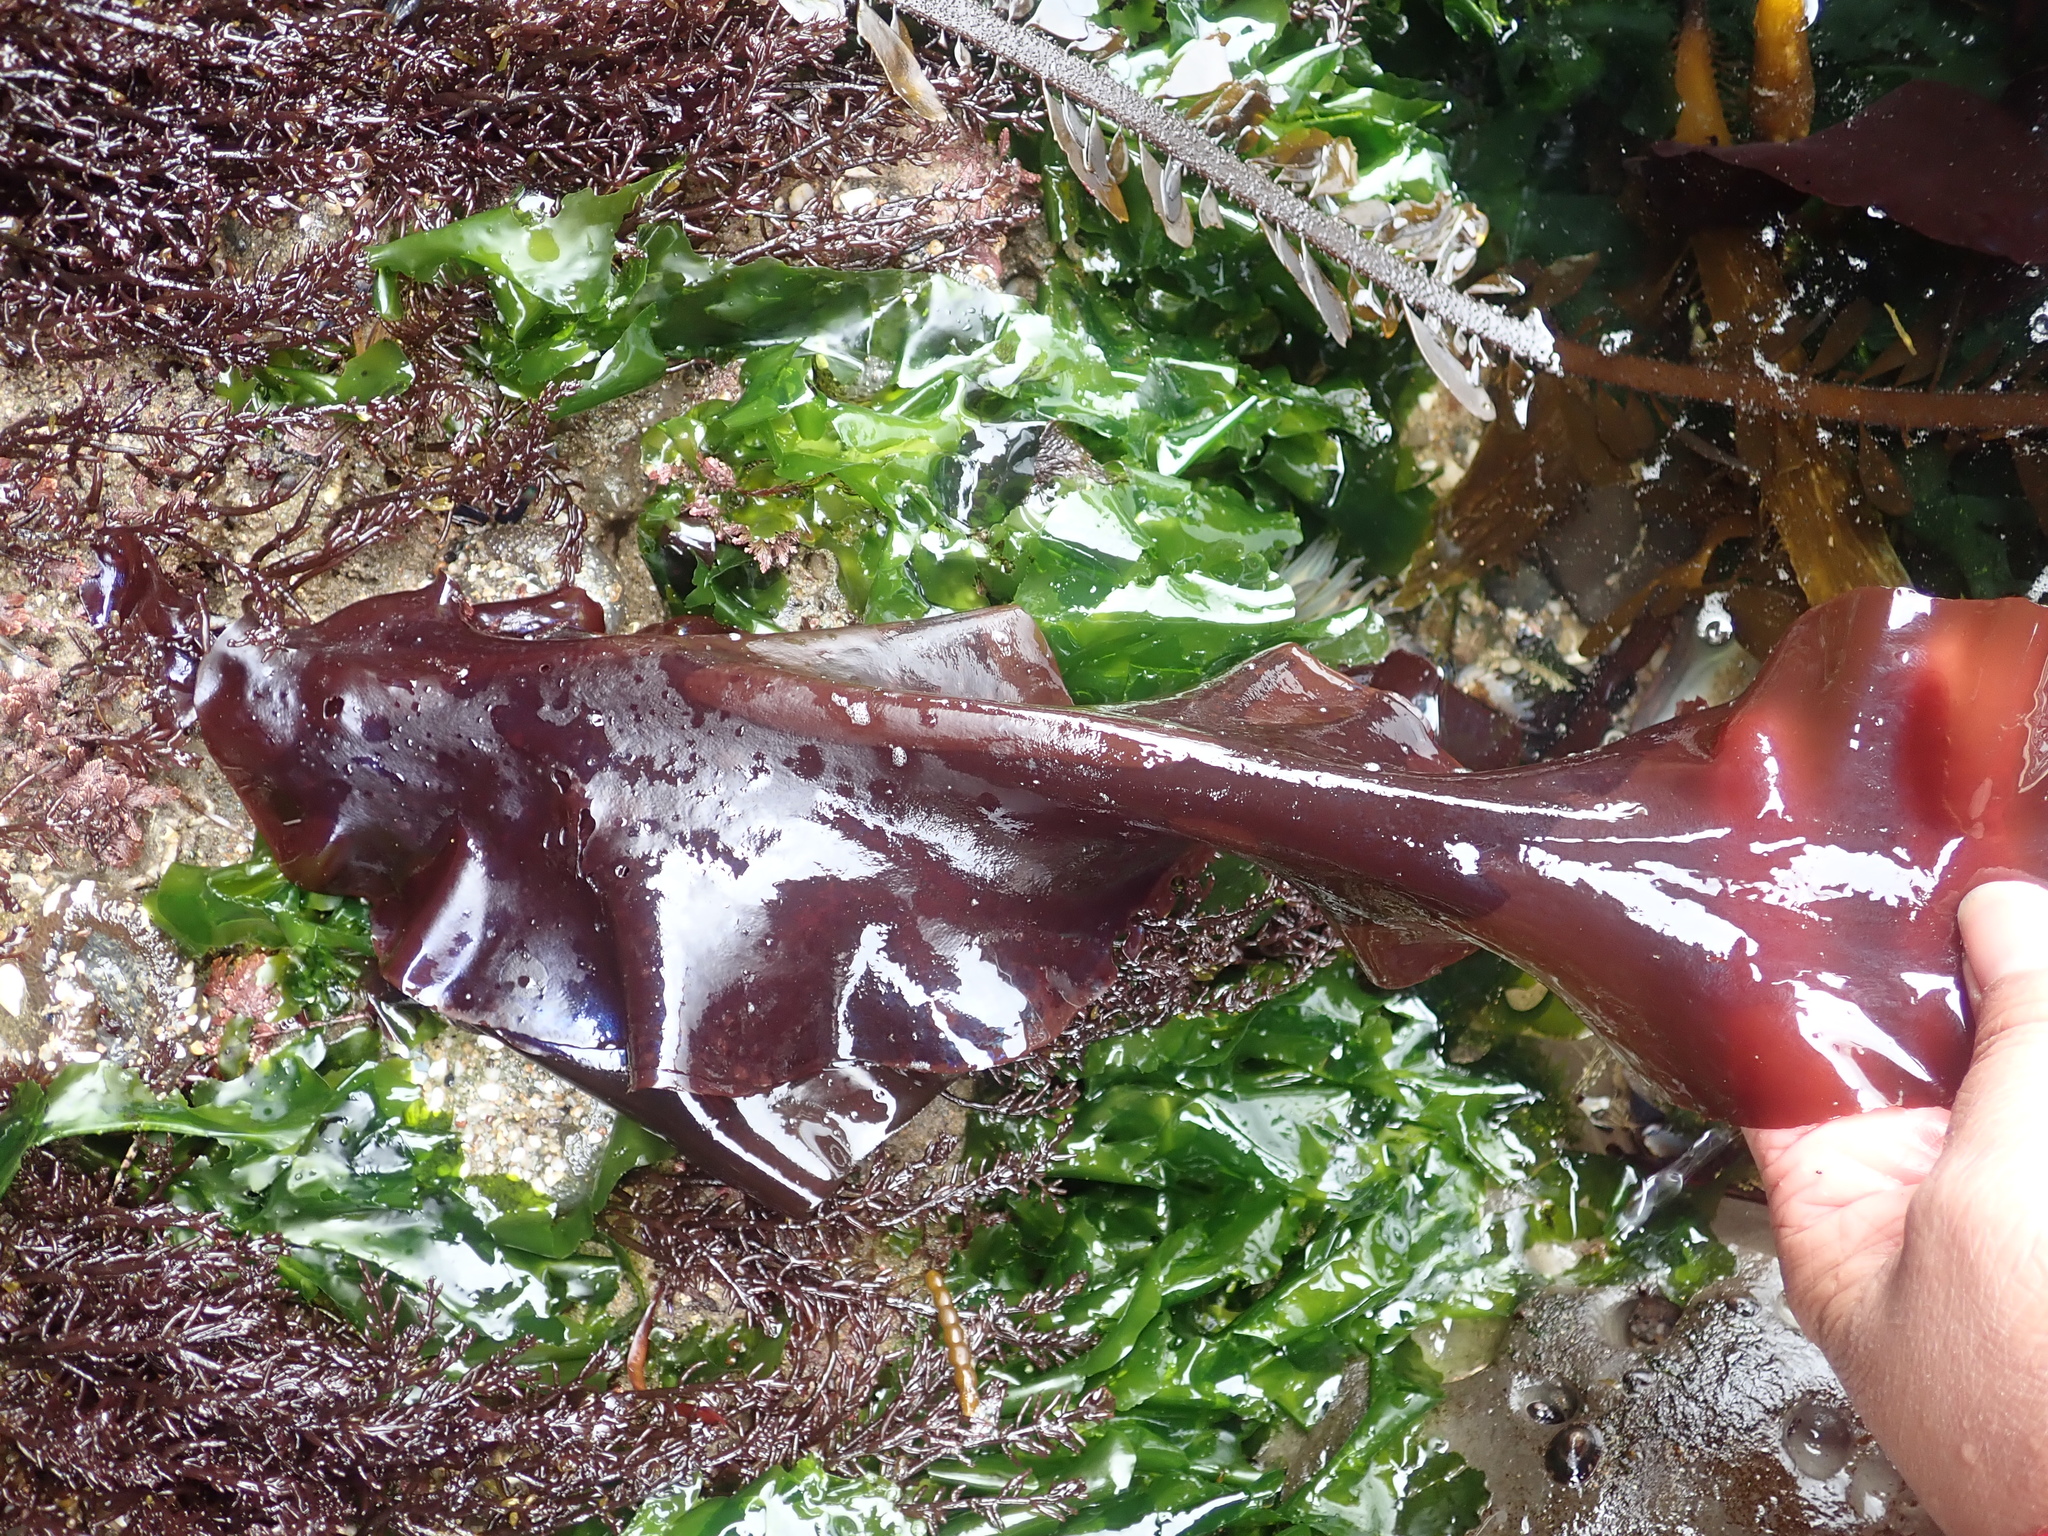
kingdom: Plantae
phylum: Rhodophyta
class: Florideophyceae
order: Gigartinales
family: Gigartinaceae
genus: Mazzaella
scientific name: Mazzaella splendens
